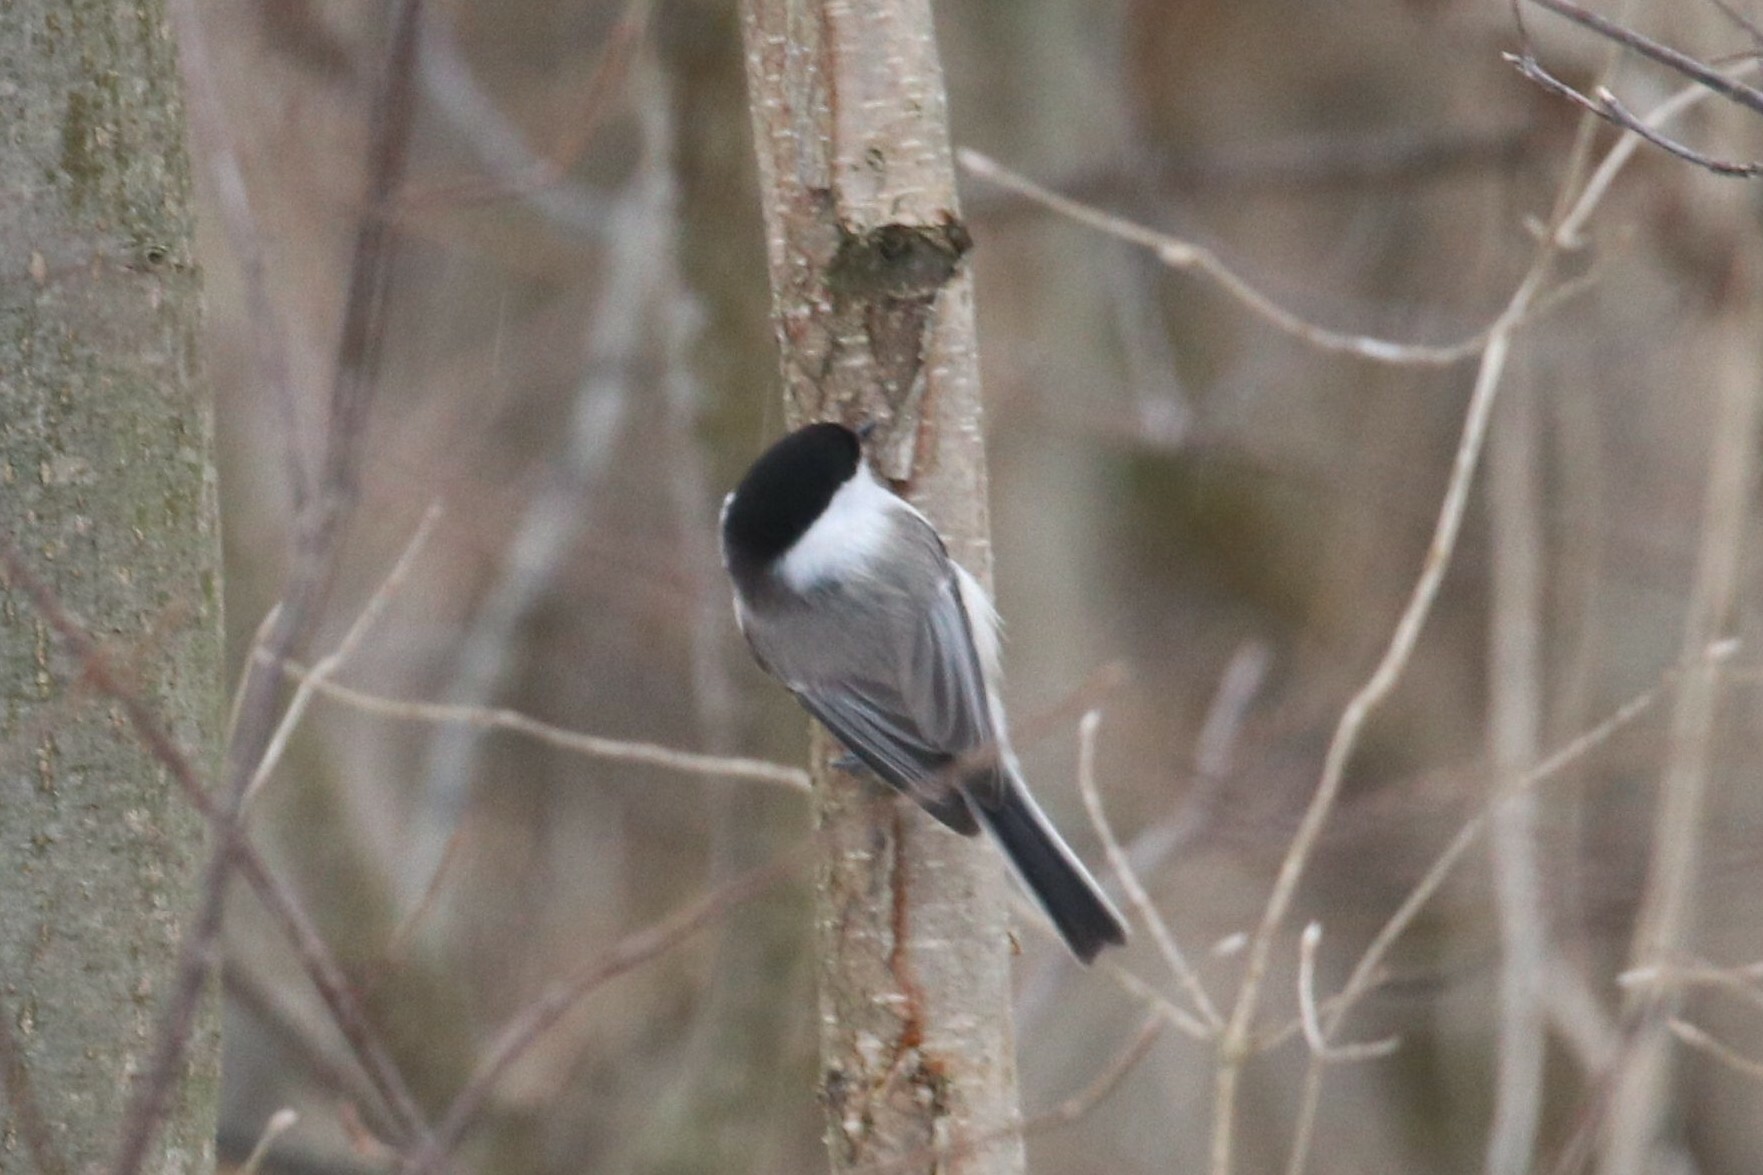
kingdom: Animalia
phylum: Chordata
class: Aves
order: Passeriformes
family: Paridae
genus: Poecile
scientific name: Poecile montanus
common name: Willow tit
